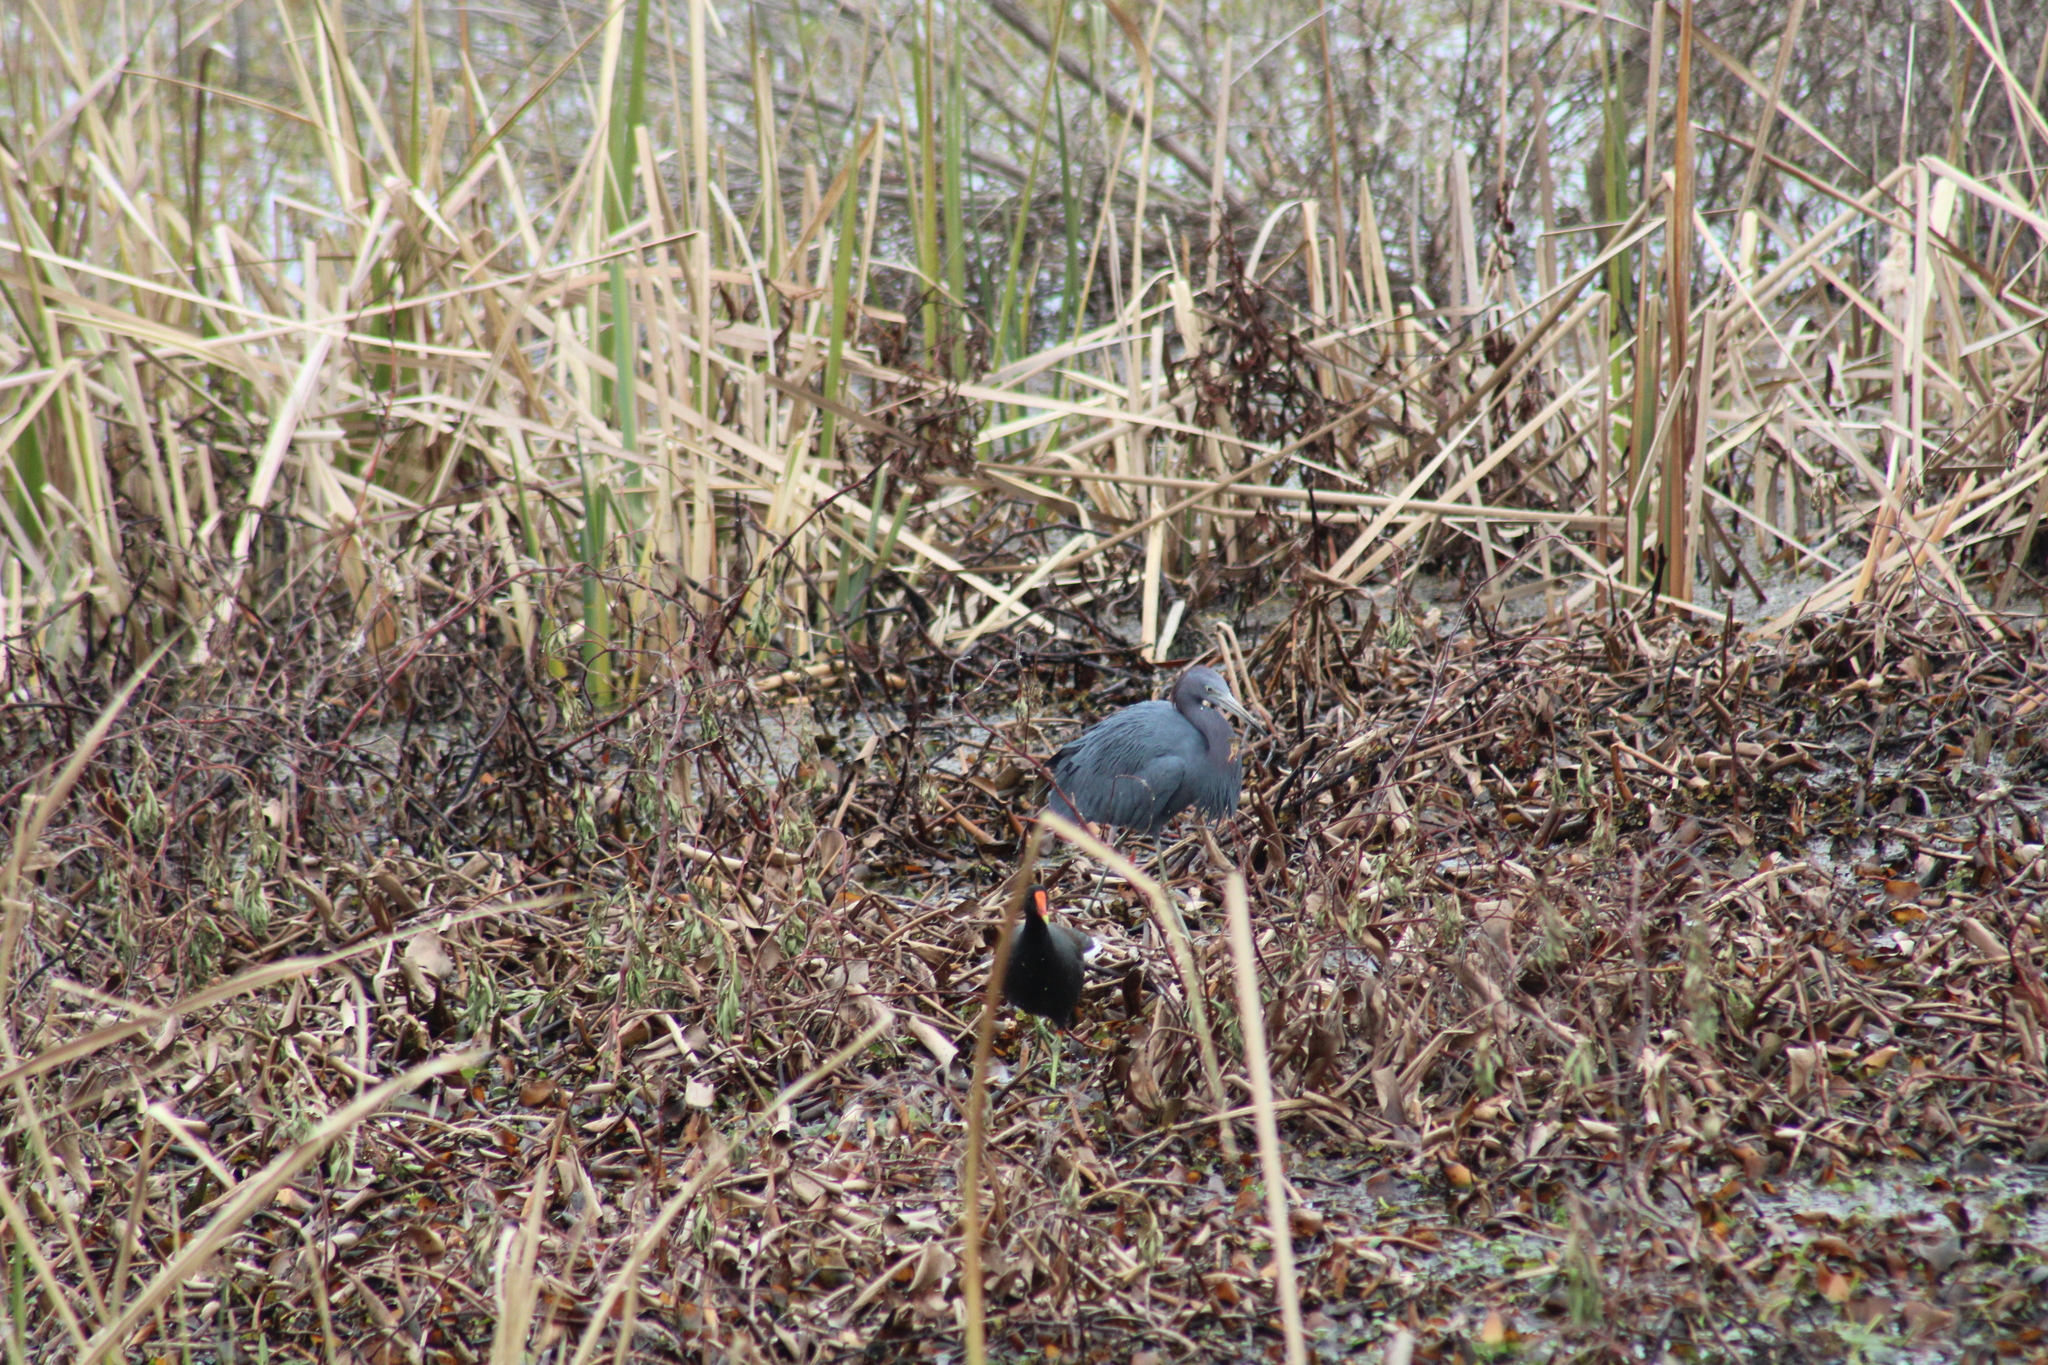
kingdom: Animalia
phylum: Chordata
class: Aves
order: Gruiformes
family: Rallidae
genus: Gallinula
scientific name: Gallinula chloropus
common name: Common moorhen
